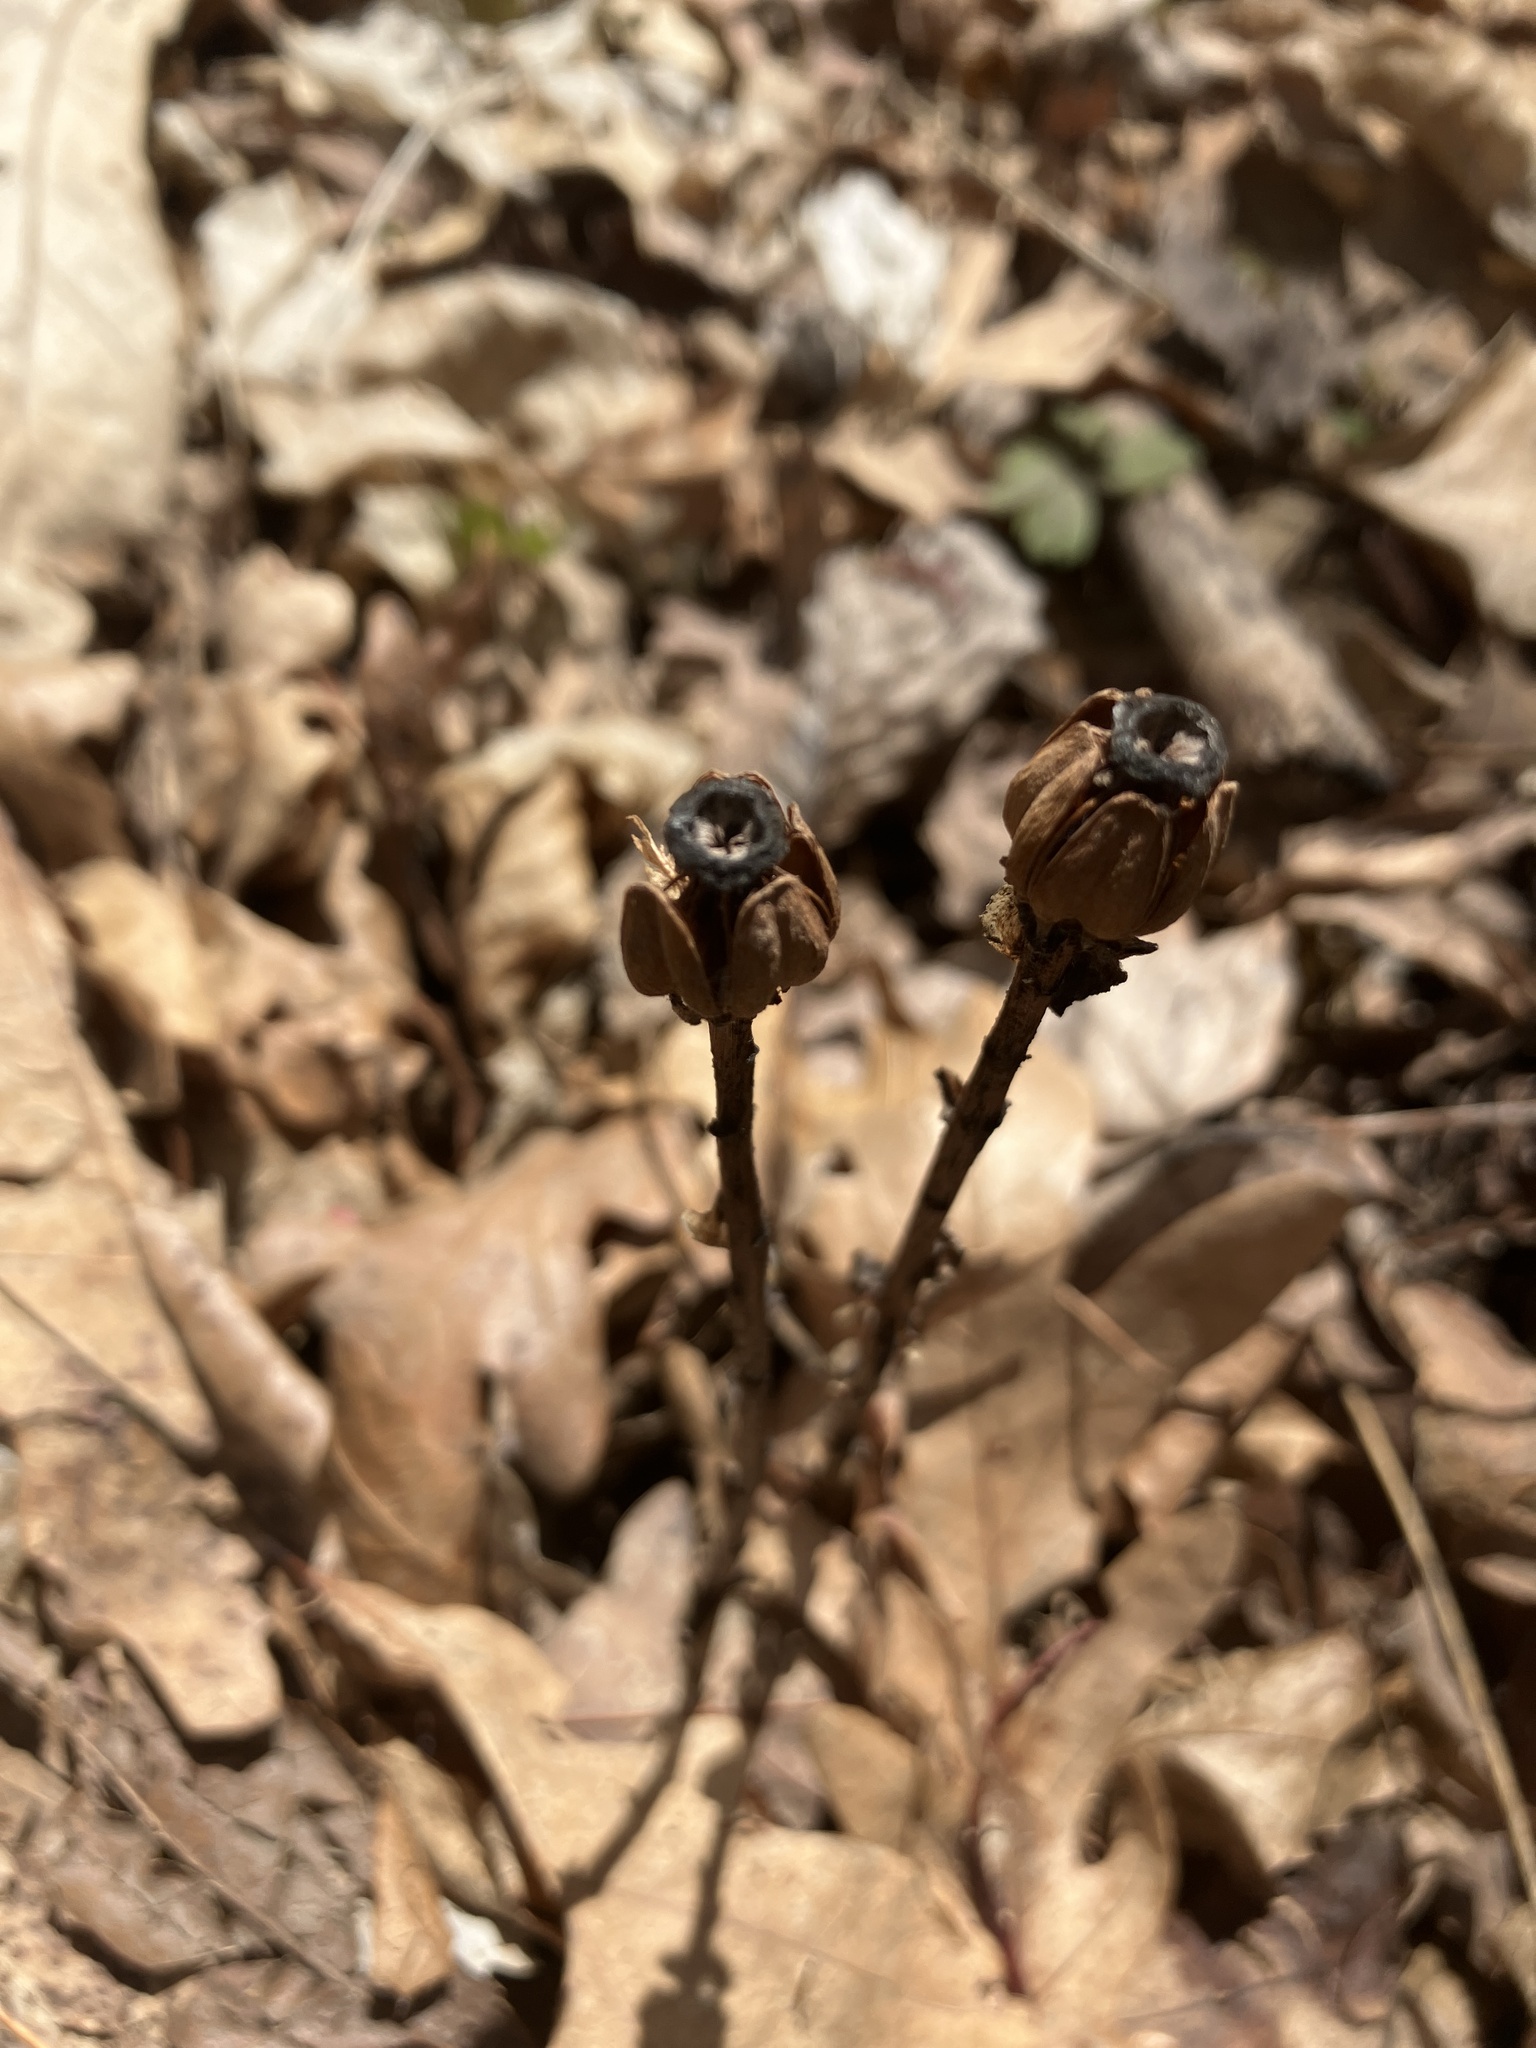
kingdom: Plantae
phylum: Tracheophyta
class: Magnoliopsida
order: Ericales
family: Ericaceae
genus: Monotropa
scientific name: Monotropa uniflora
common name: Convulsion root
